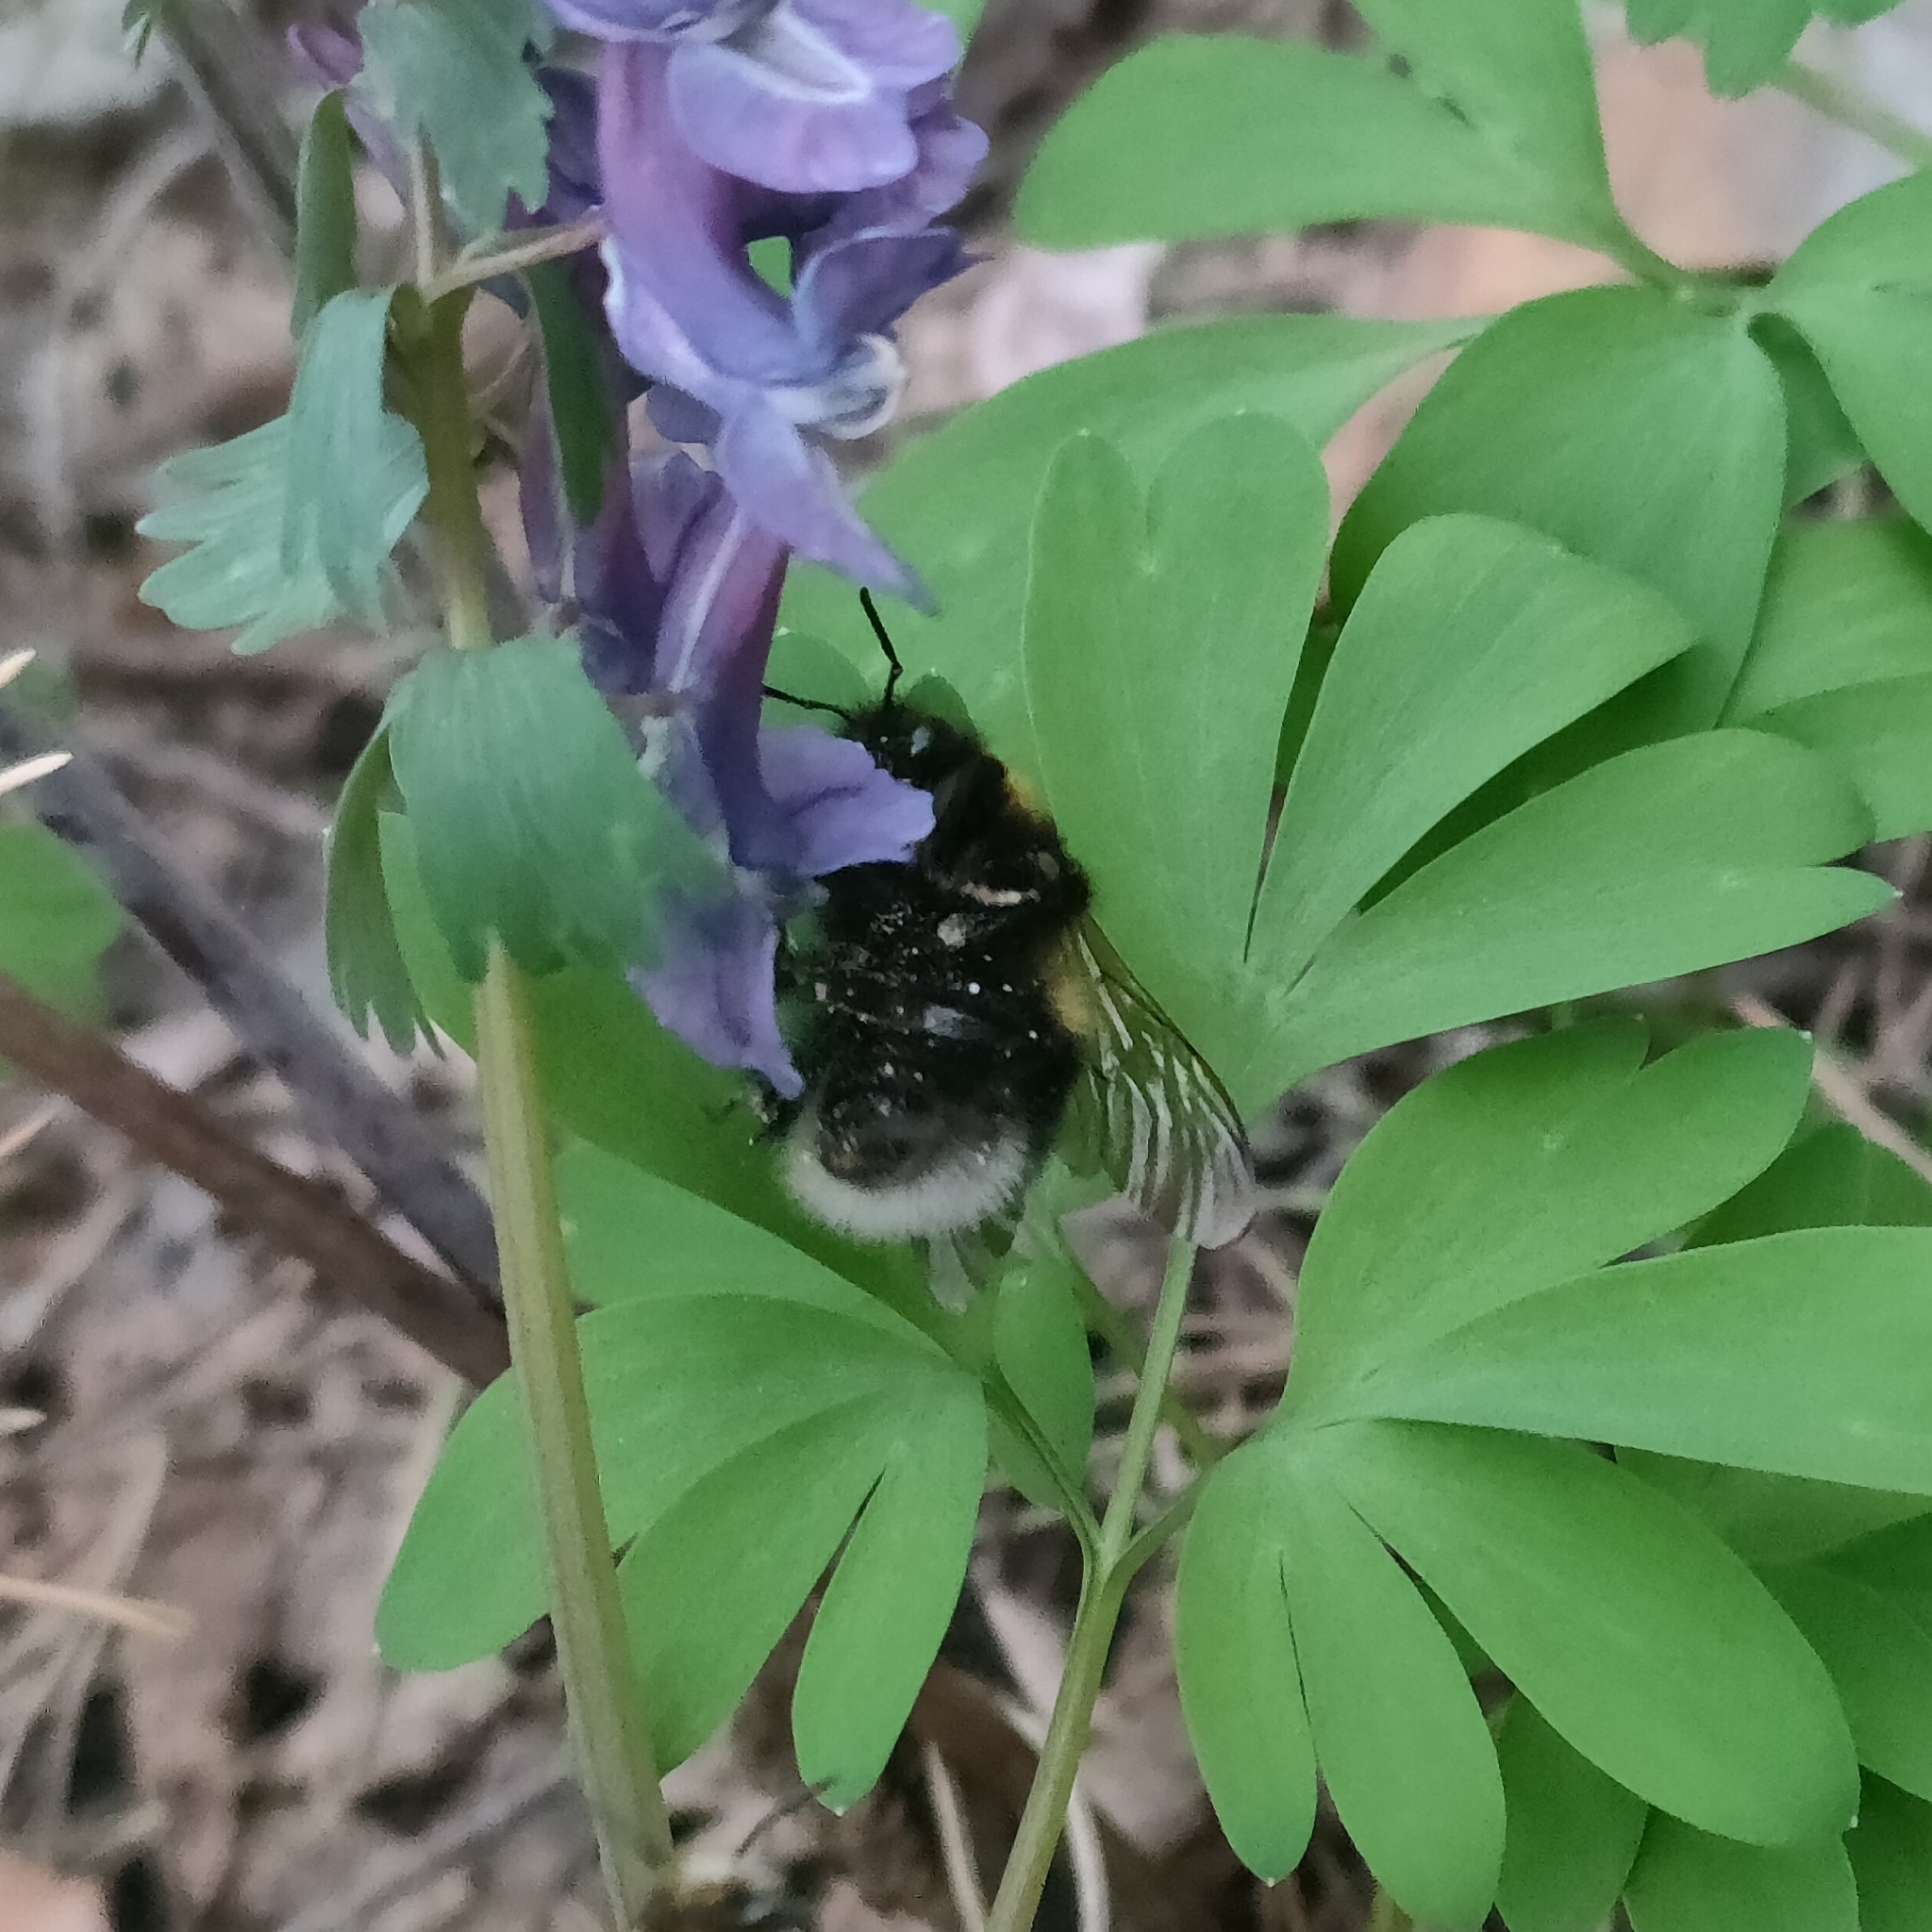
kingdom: Animalia
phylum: Arthropoda
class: Insecta
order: Hymenoptera
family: Apidae
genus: Bombus
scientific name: Bombus
